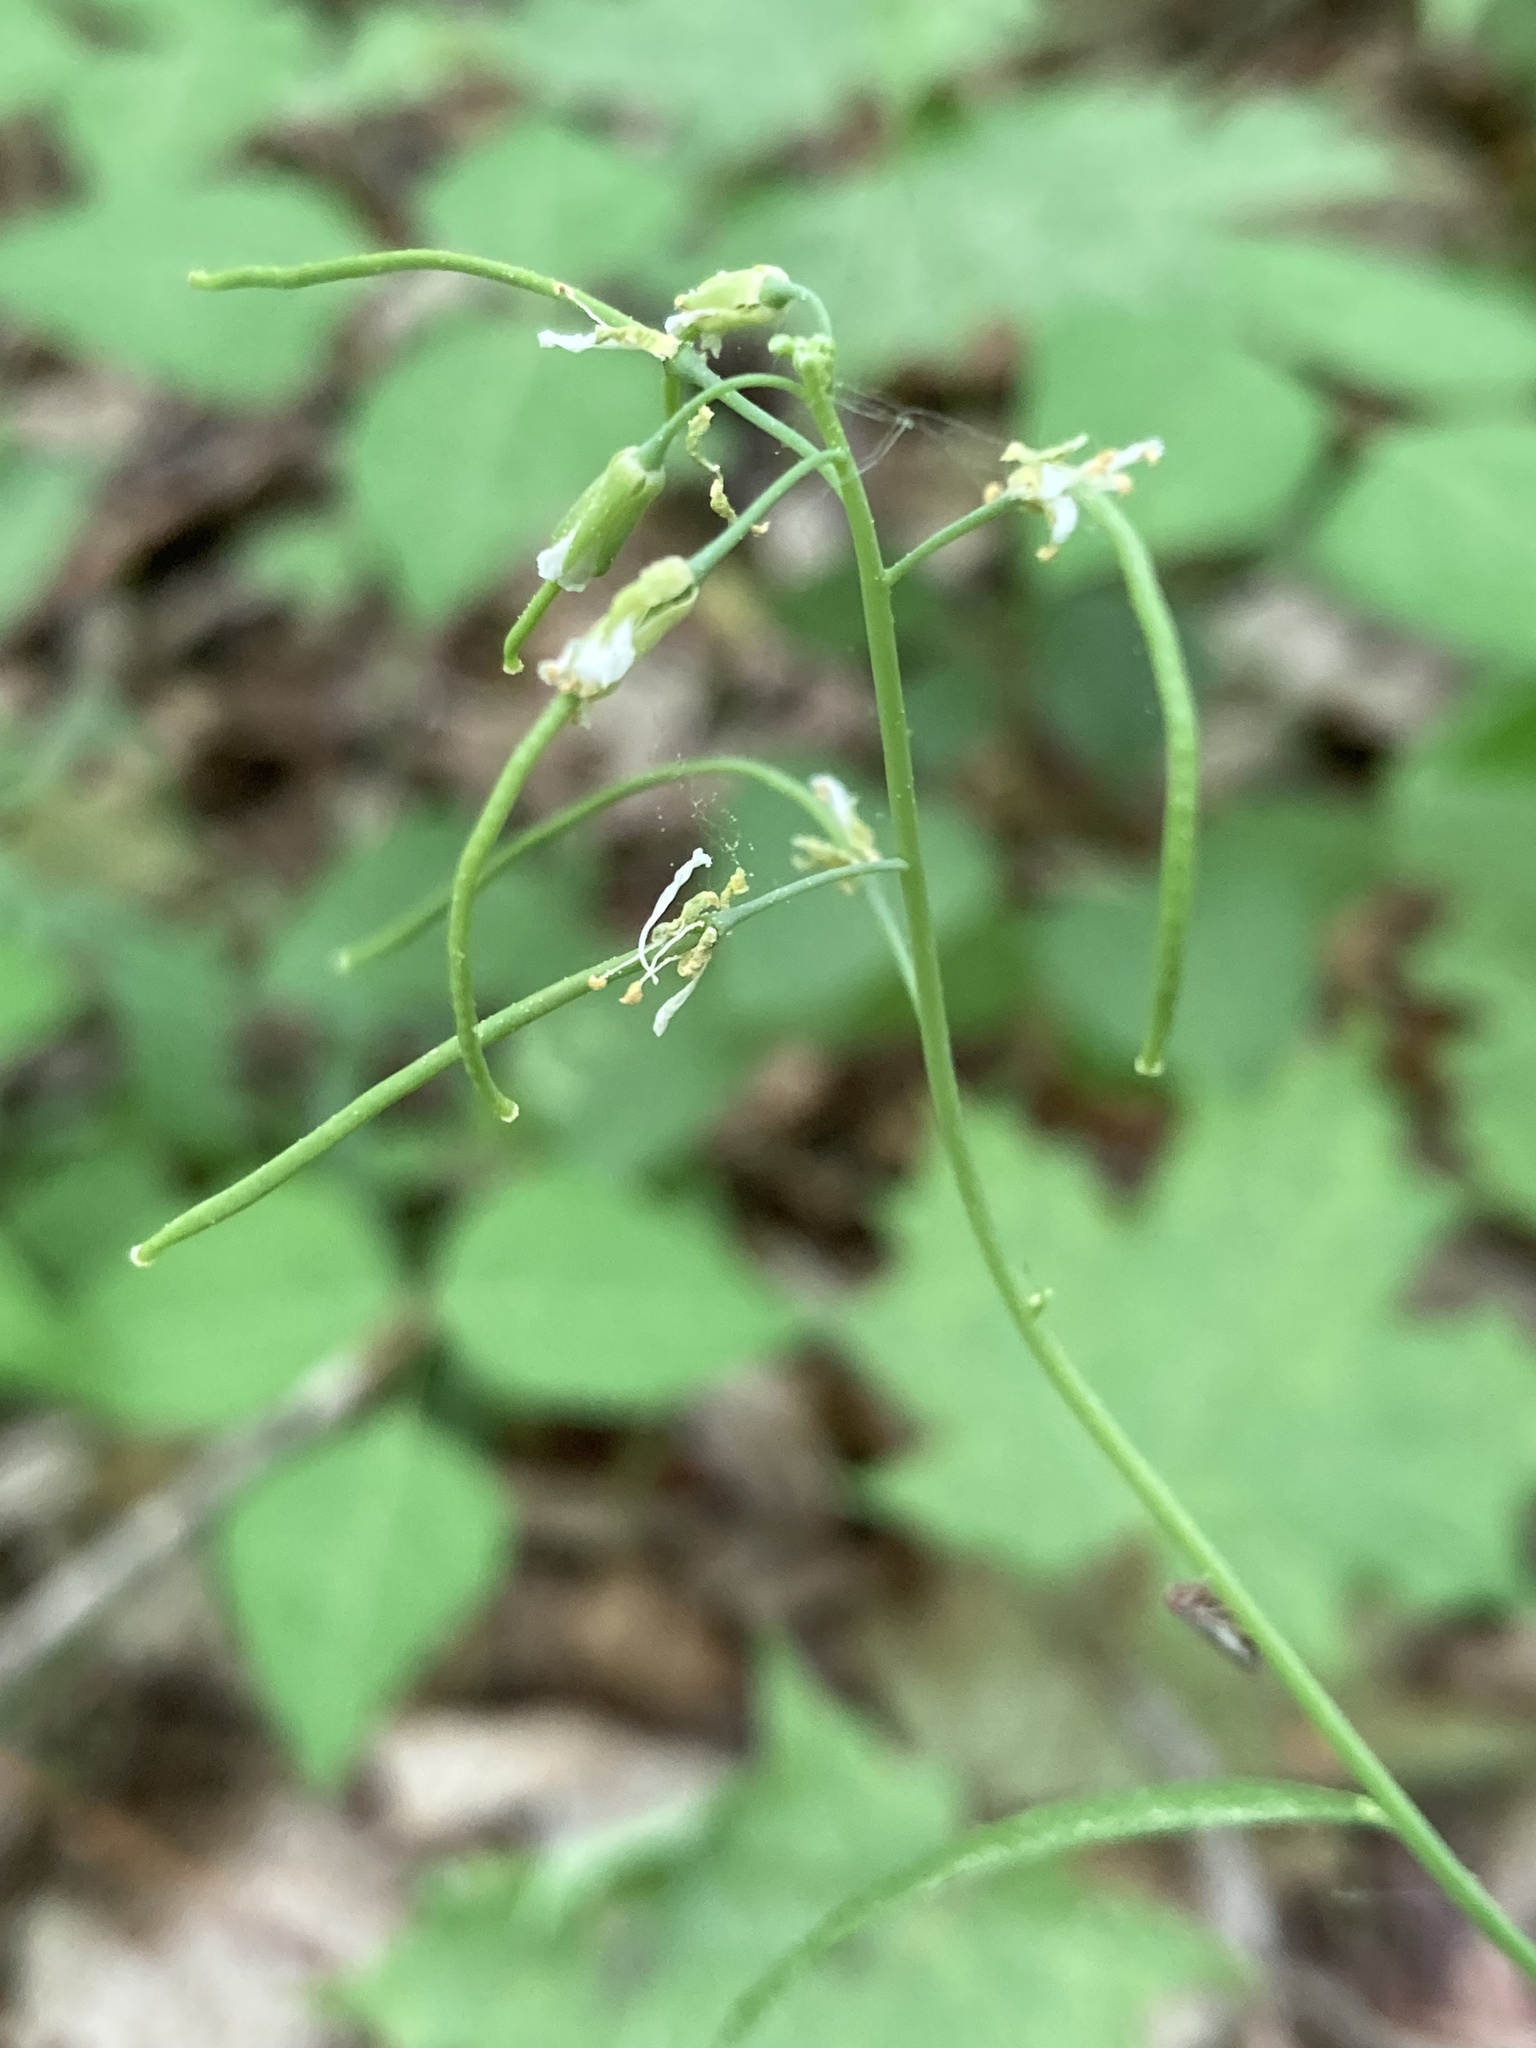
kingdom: Plantae
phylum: Tracheophyta
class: Magnoliopsida
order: Brassicales
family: Brassicaceae
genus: Borodinia
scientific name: Borodinia laevigata
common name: Smooth rockcress
